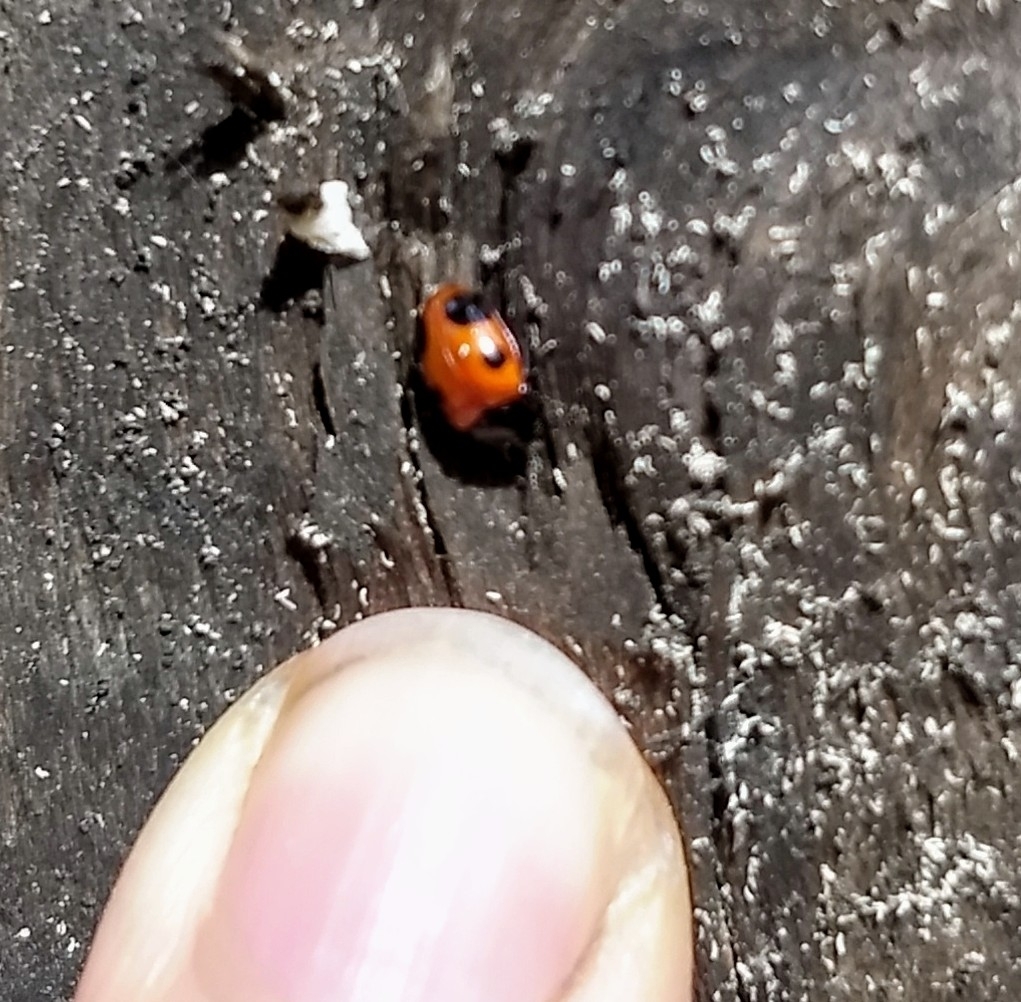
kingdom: Animalia
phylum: Arthropoda
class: Insecta
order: Coleoptera
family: Endomychidae
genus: Endomychus
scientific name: Endomychus biguttatus
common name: Handsome fungus beetle
